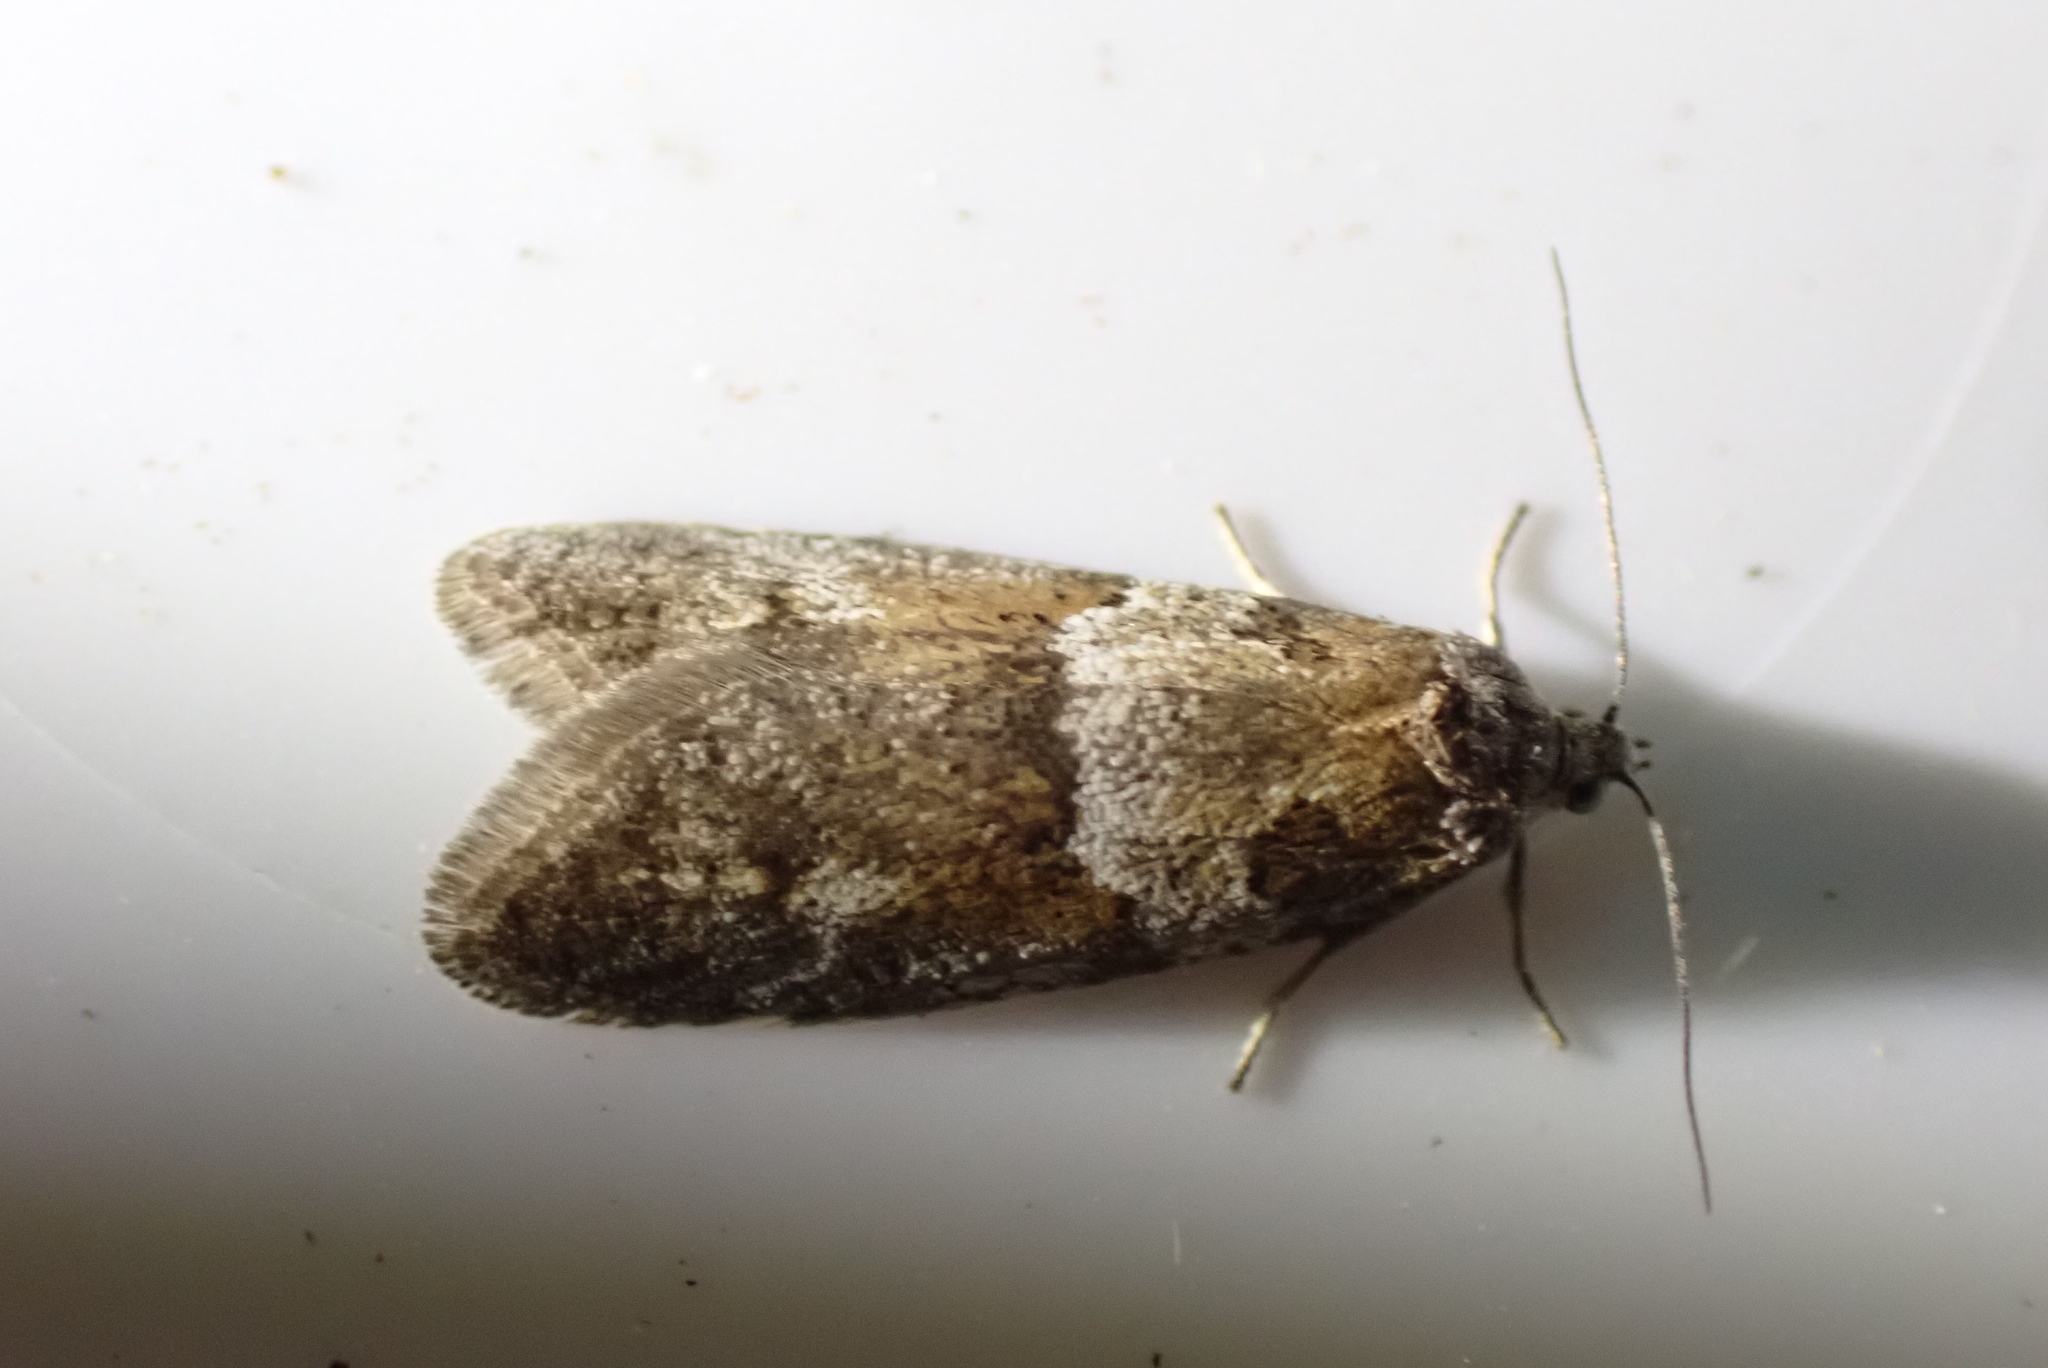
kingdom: Animalia
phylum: Arthropoda
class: Insecta
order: Lepidoptera
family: Tortricidae
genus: Tortricodes
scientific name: Tortricodes alternella
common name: Winter shade
